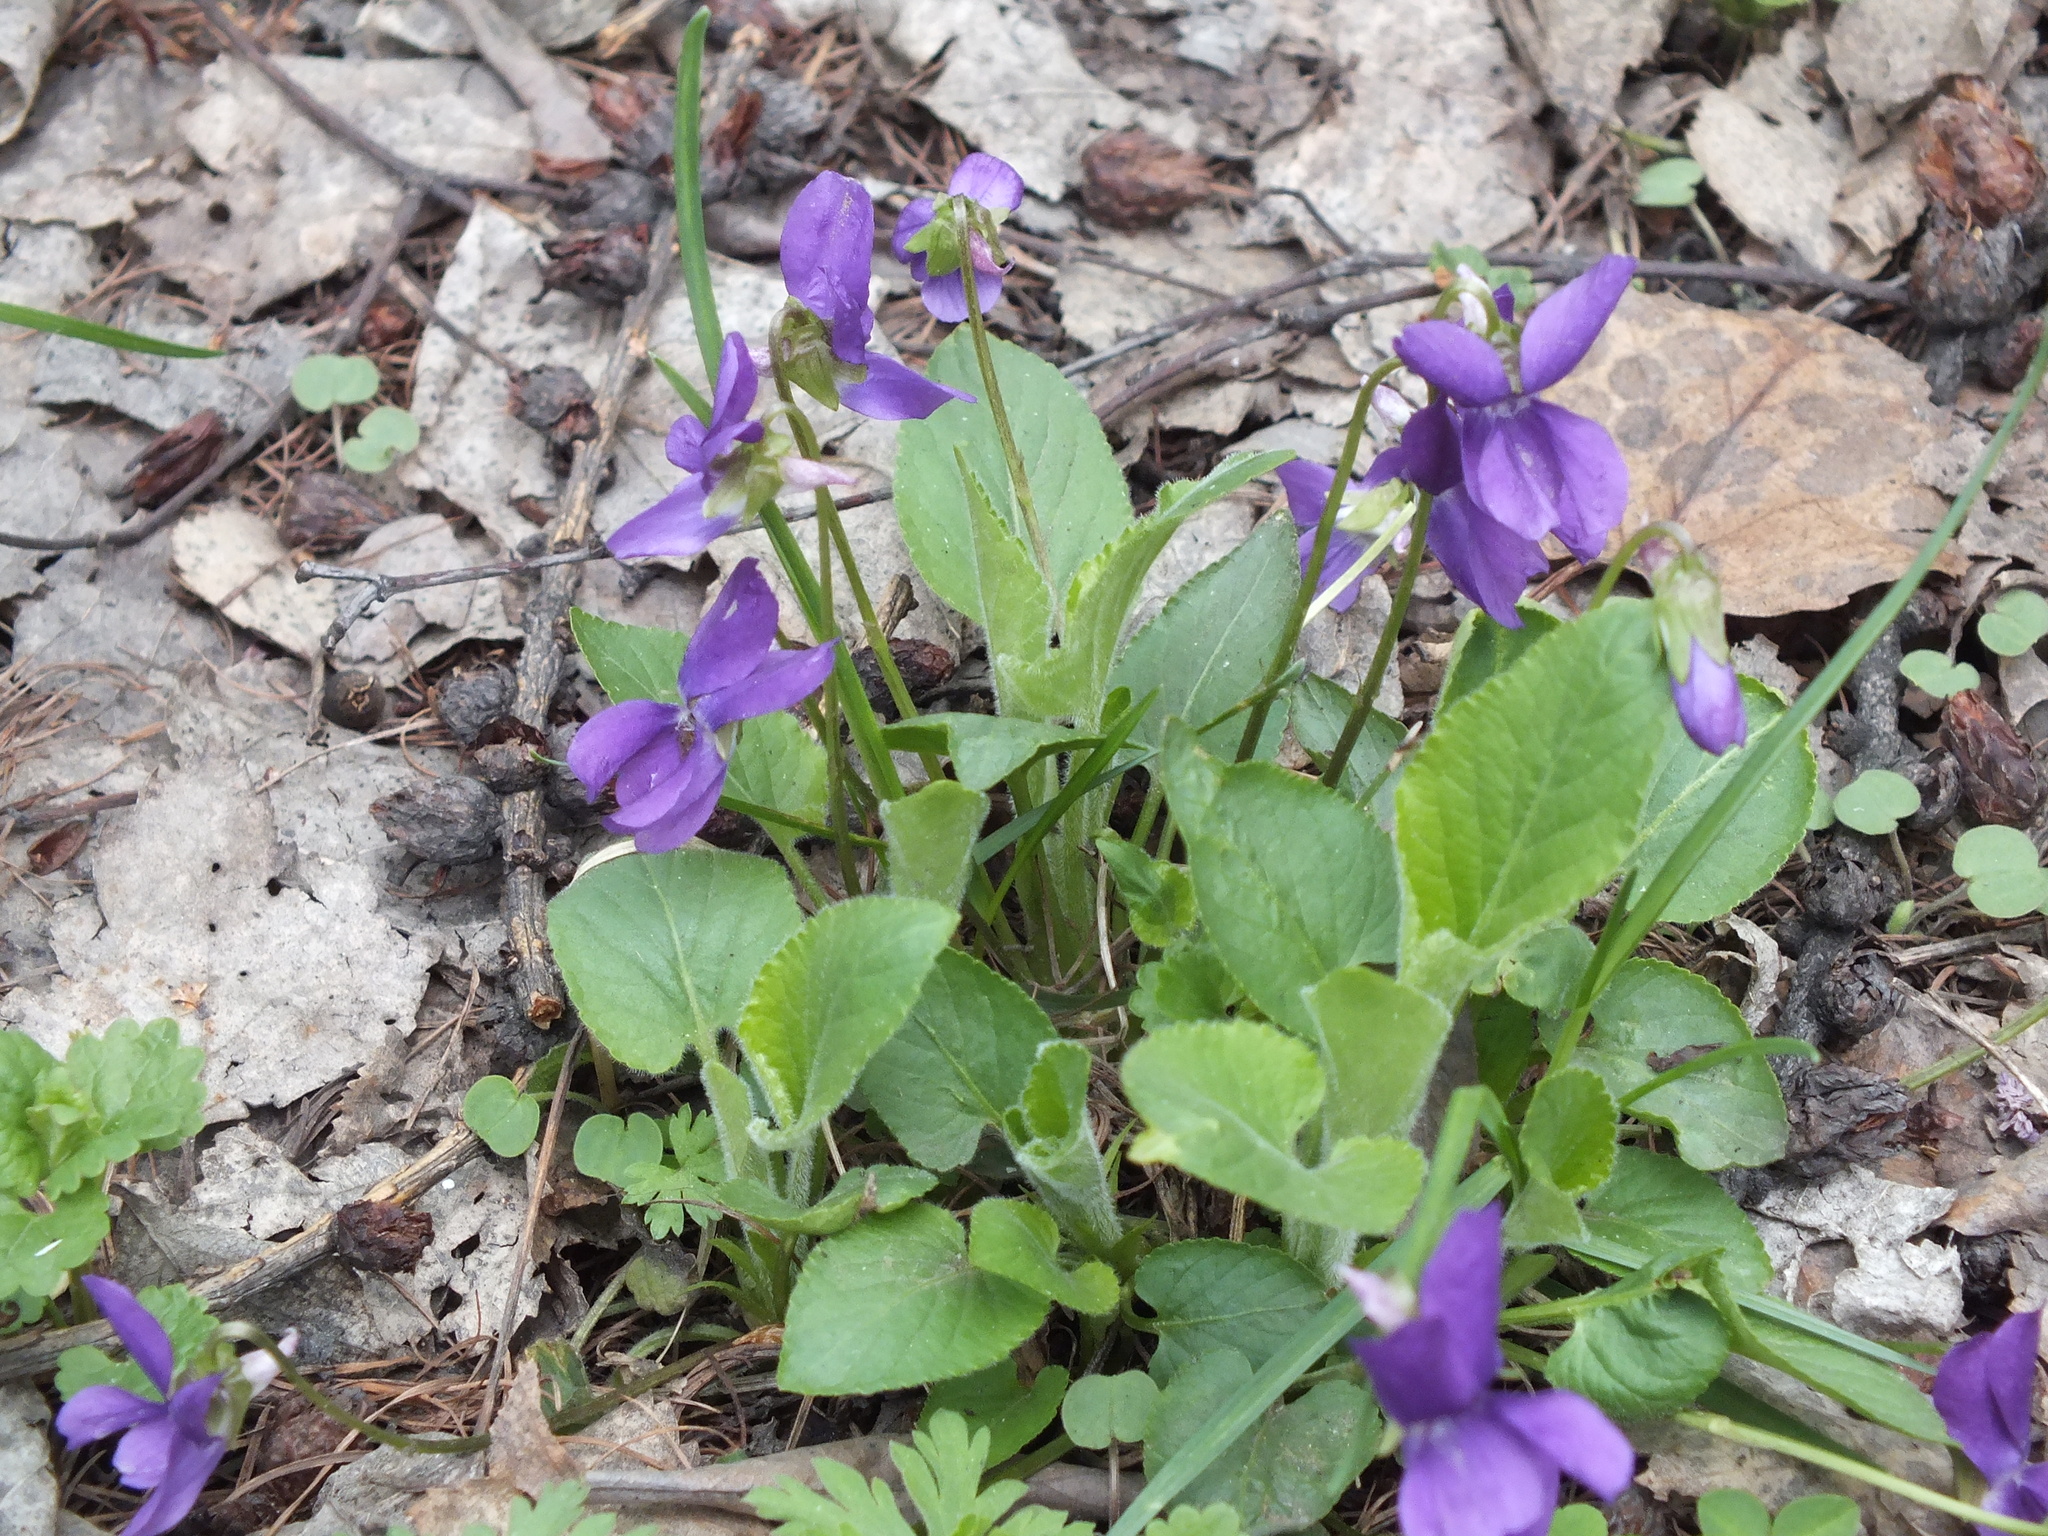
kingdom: Plantae
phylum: Tracheophyta
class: Magnoliopsida
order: Malpighiales
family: Violaceae
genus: Viola
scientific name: Viola hirta
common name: Hairy violet
